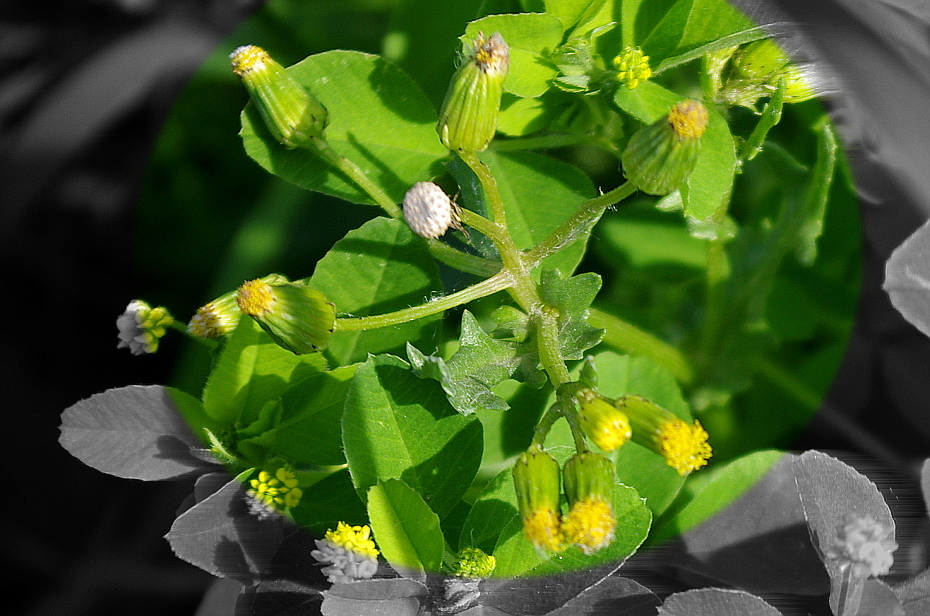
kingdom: Plantae
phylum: Tracheophyta
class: Magnoliopsida
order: Asterales
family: Asteraceae
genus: Senecio
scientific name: Senecio vulgaris
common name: Old-man-in-the-spring
